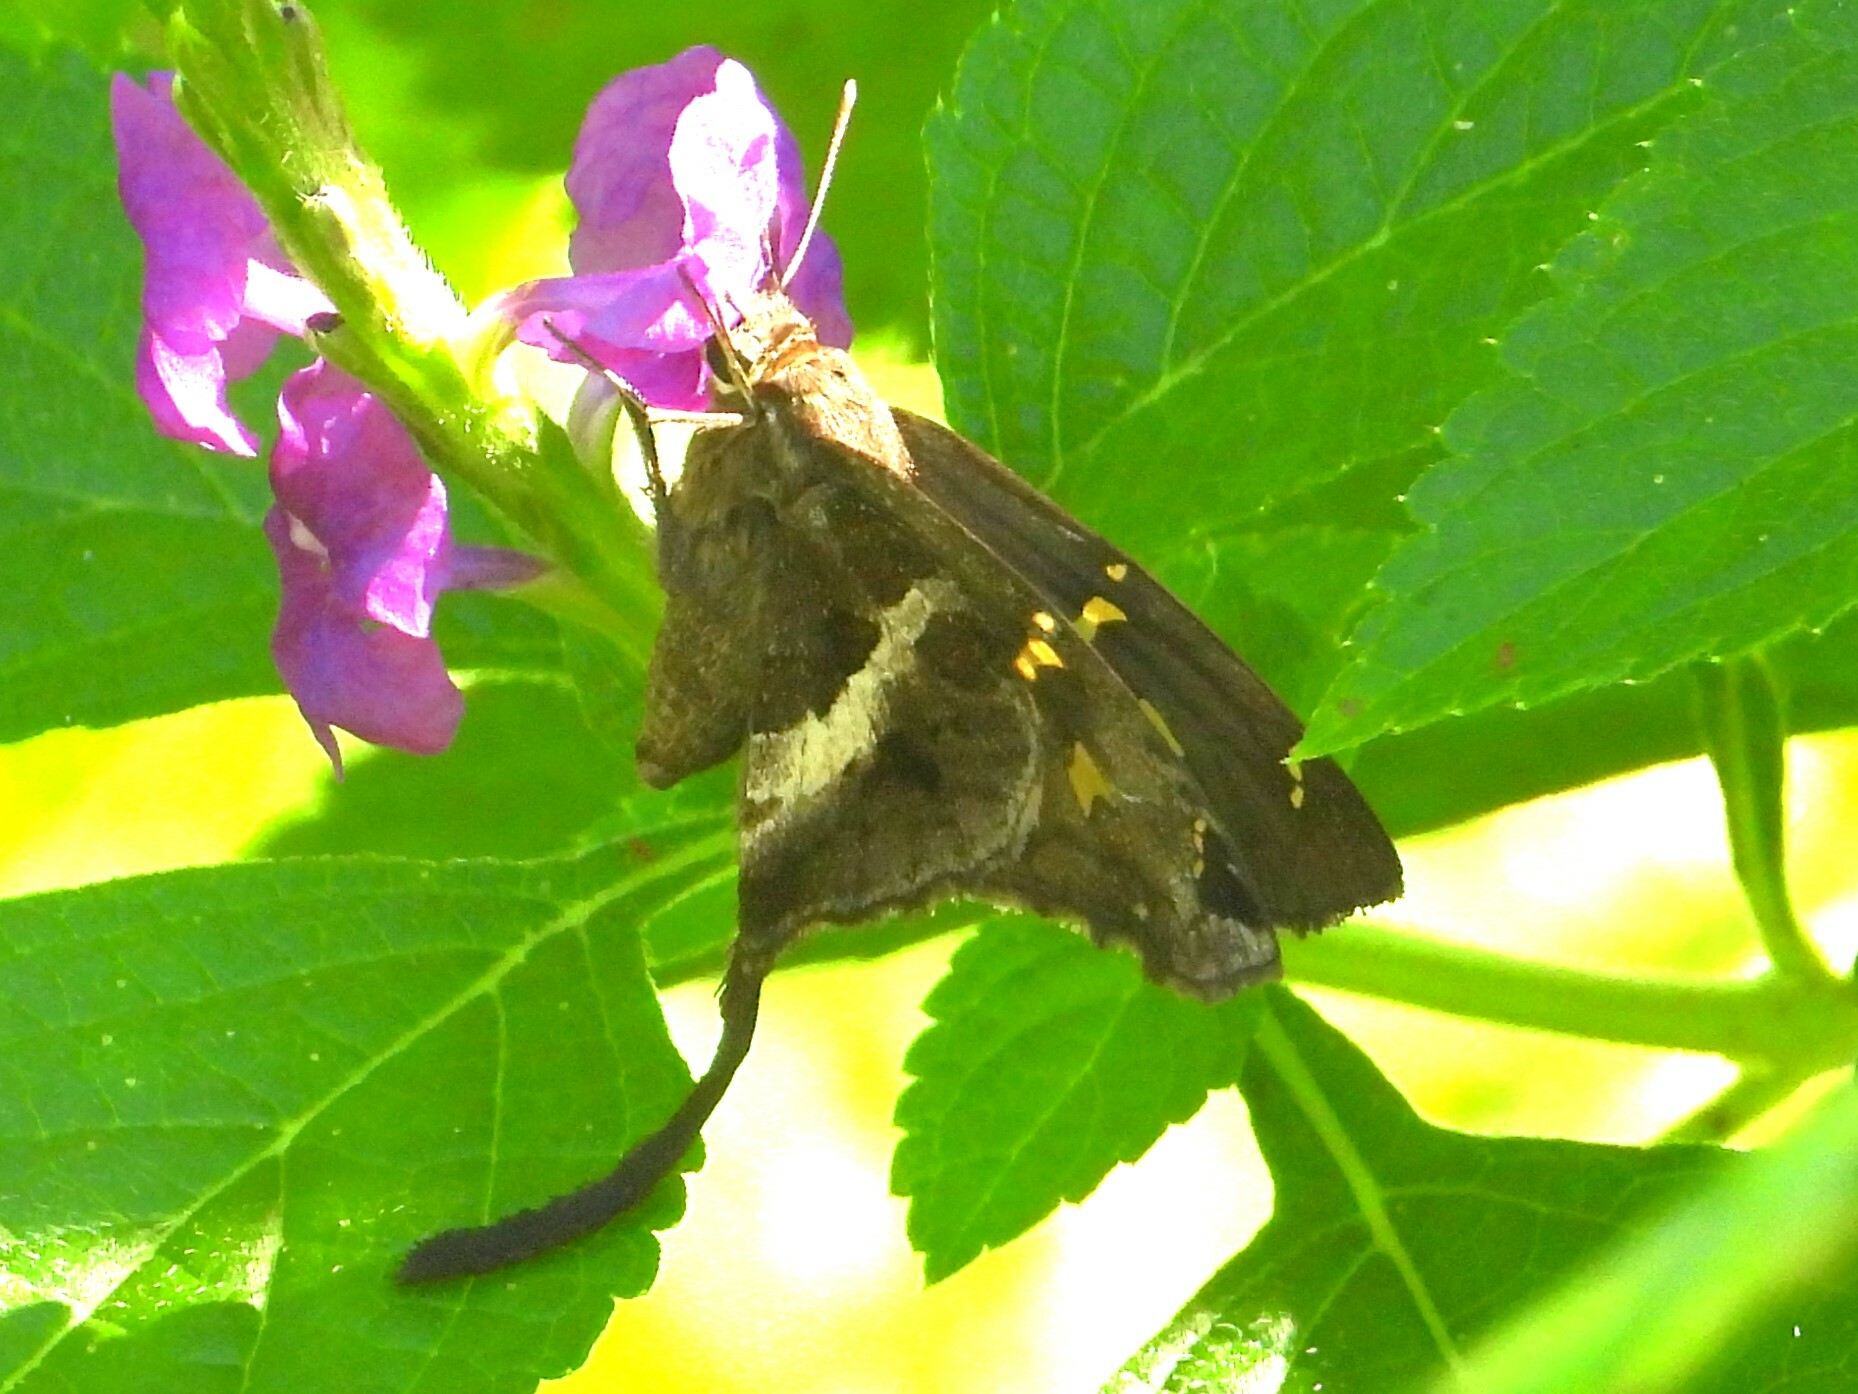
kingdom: Animalia
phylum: Arthropoda
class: Insecta
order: Lepidoptera
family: Hesperiidae
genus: Chioides
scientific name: Chioides catillus
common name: Silverbanded skipper
